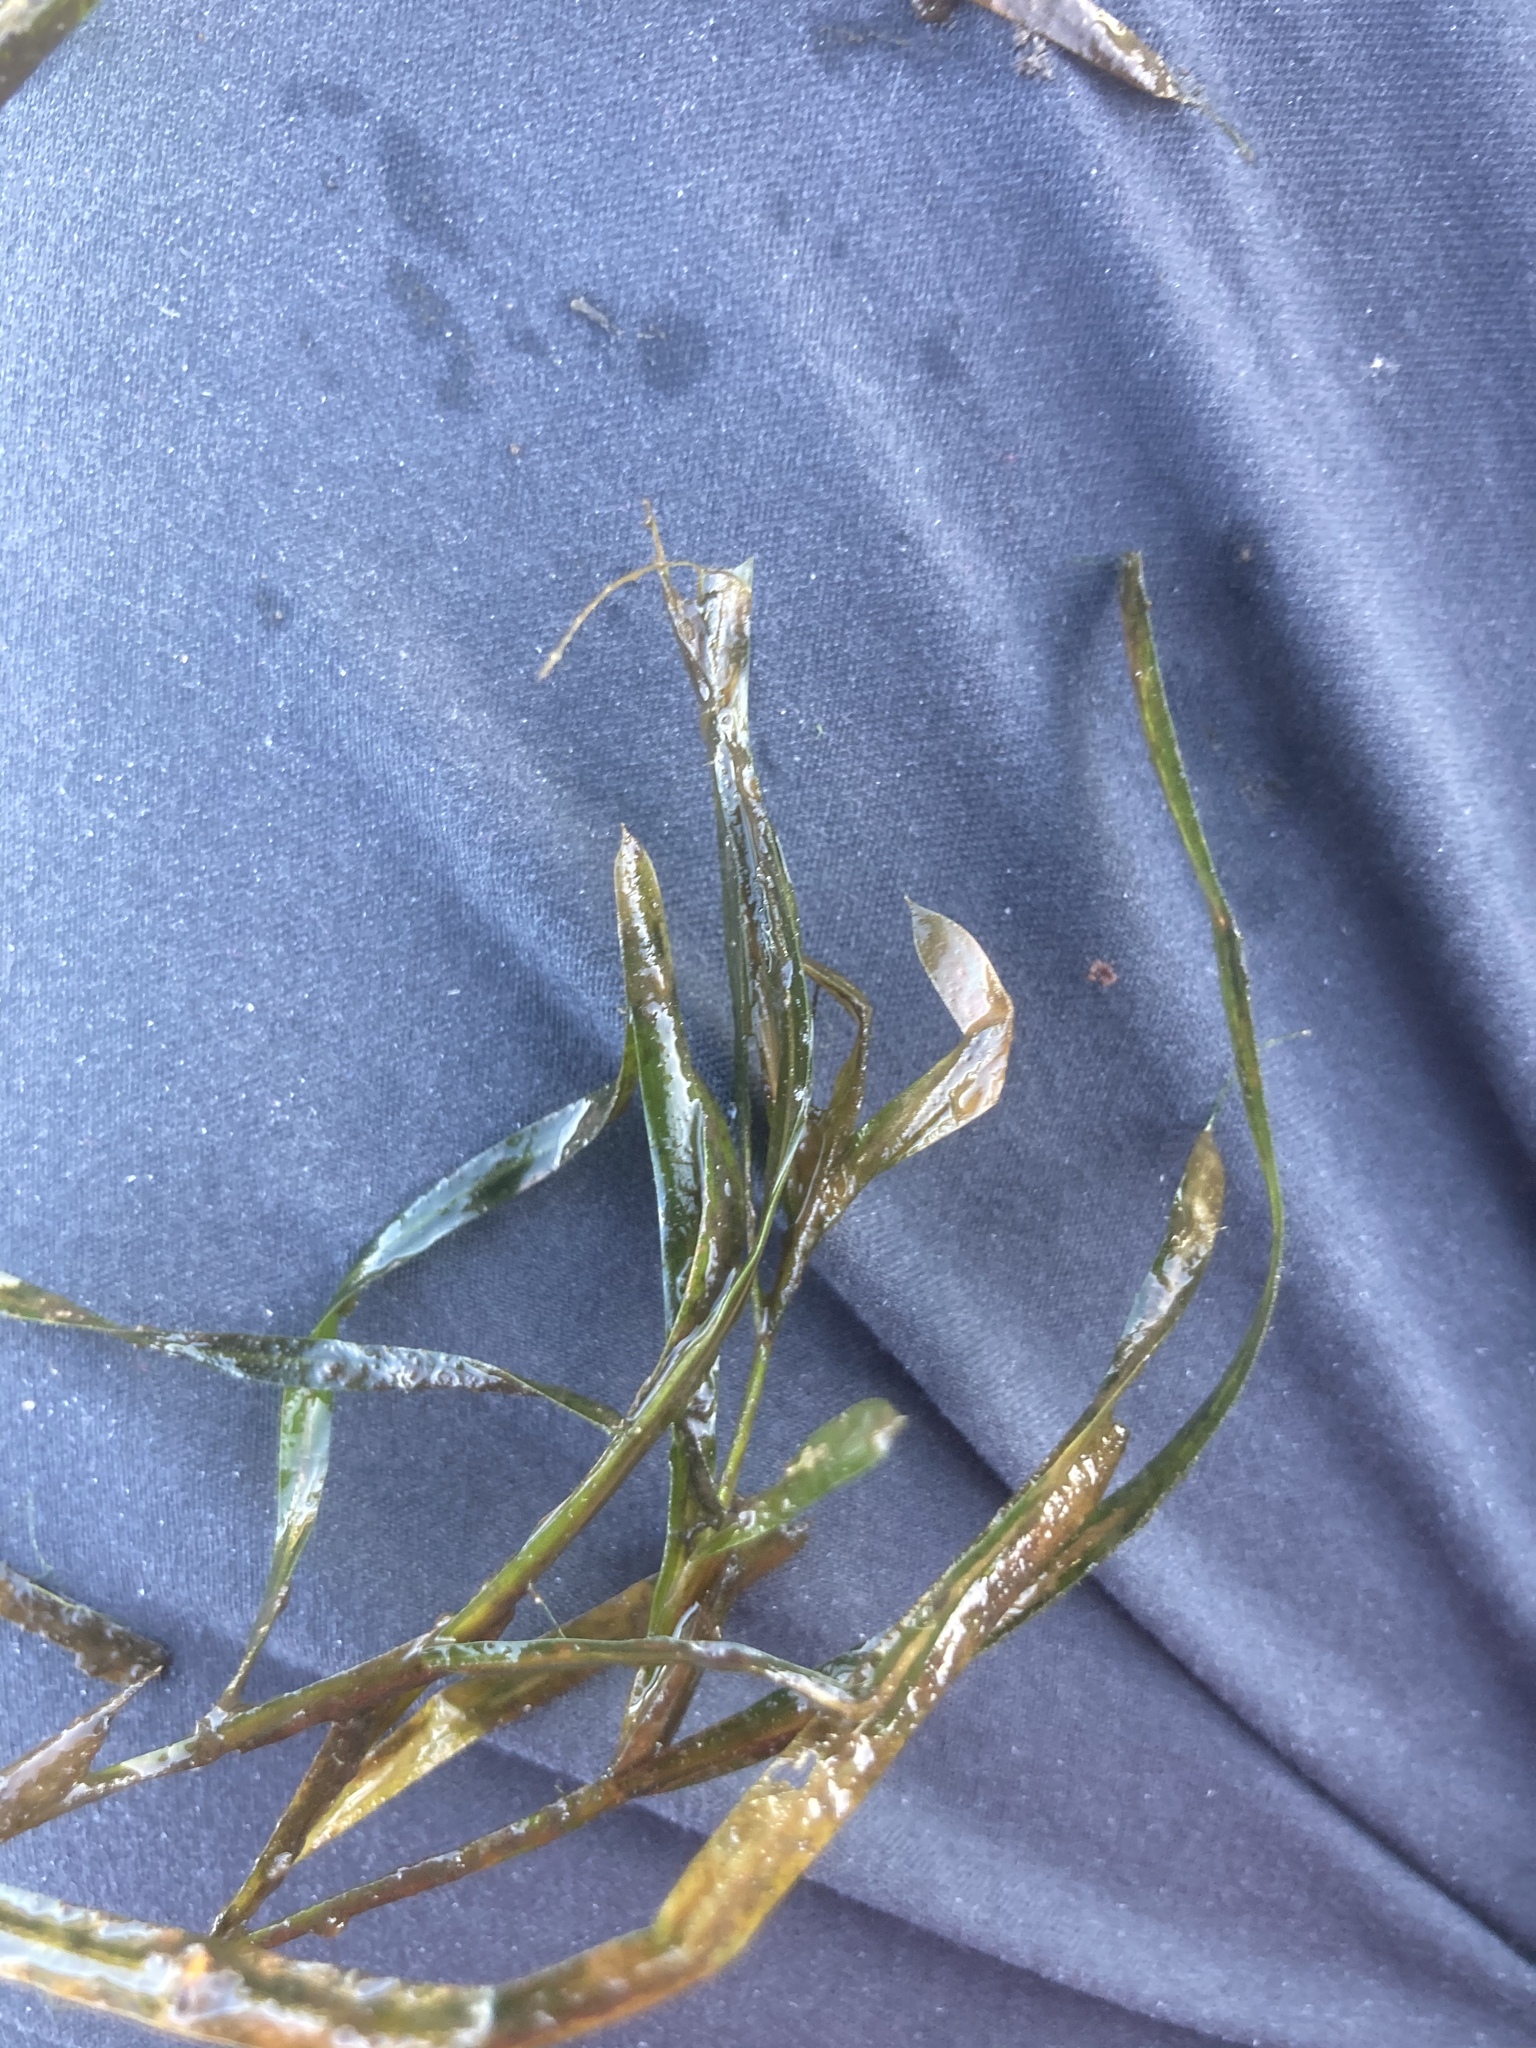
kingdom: Plantae
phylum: Tracheophyta
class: Liliopsida
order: Alismatales
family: Potamogetonaceae
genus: Potamogeton
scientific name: Potamogeton acutifolius
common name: Sharp-leaved pondweed
